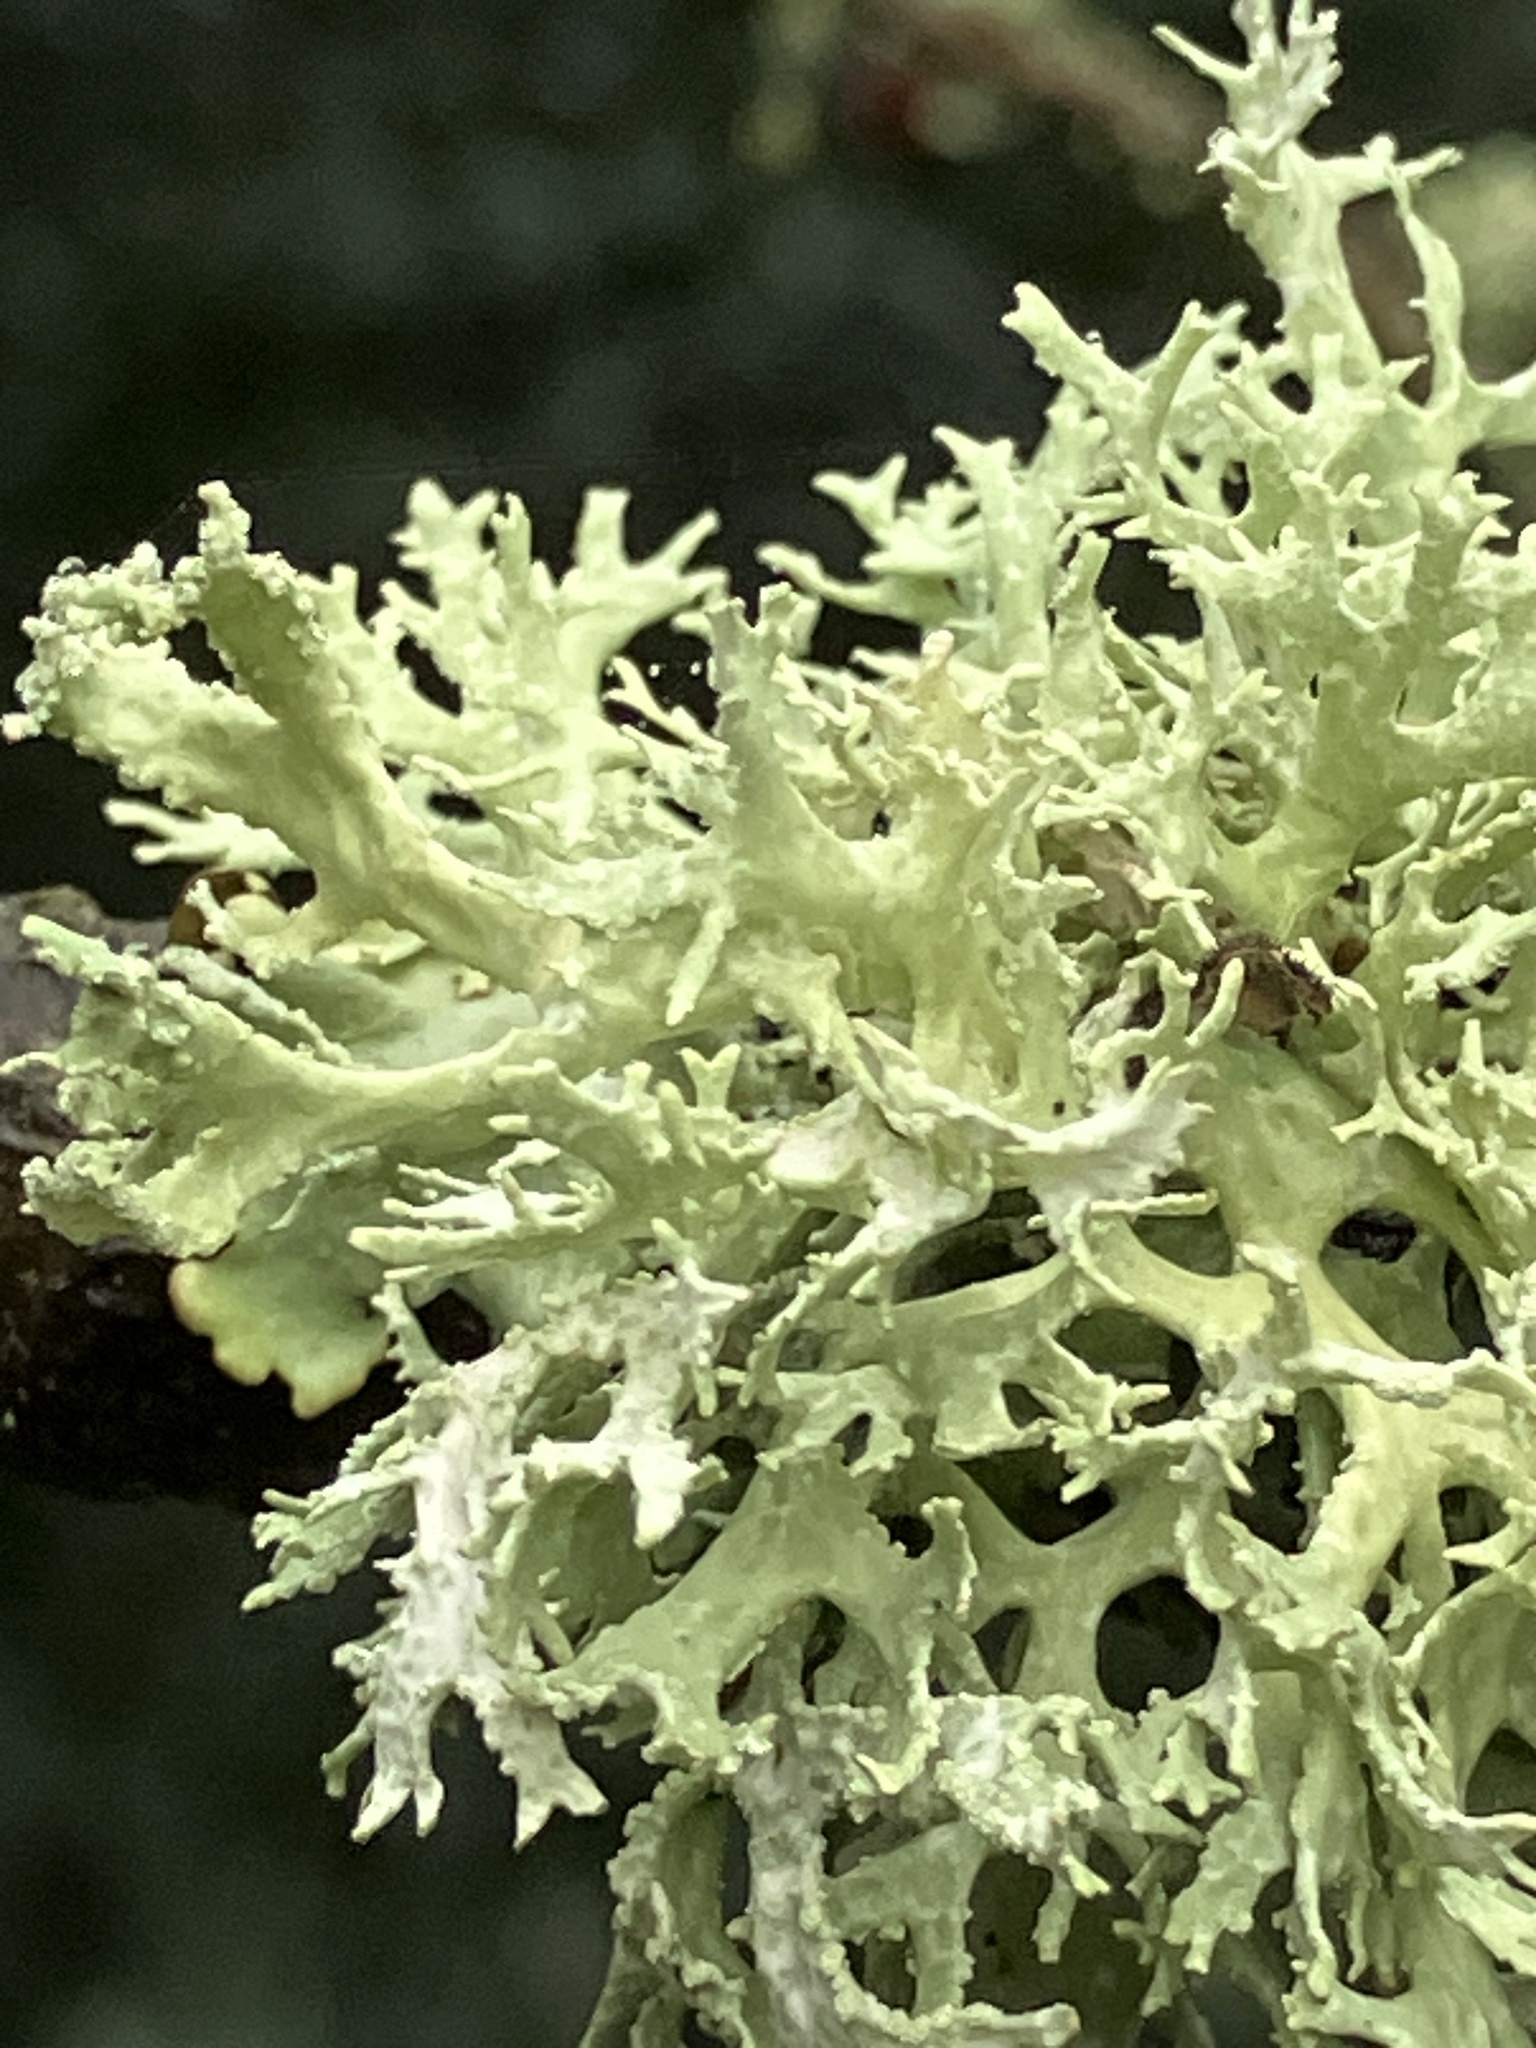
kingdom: Fungi
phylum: Ascomycota
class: Lecanoromycetes
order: Lecanorales
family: Parmeliaceae
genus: Evernia
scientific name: Evernia prunastri
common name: Oak moss
